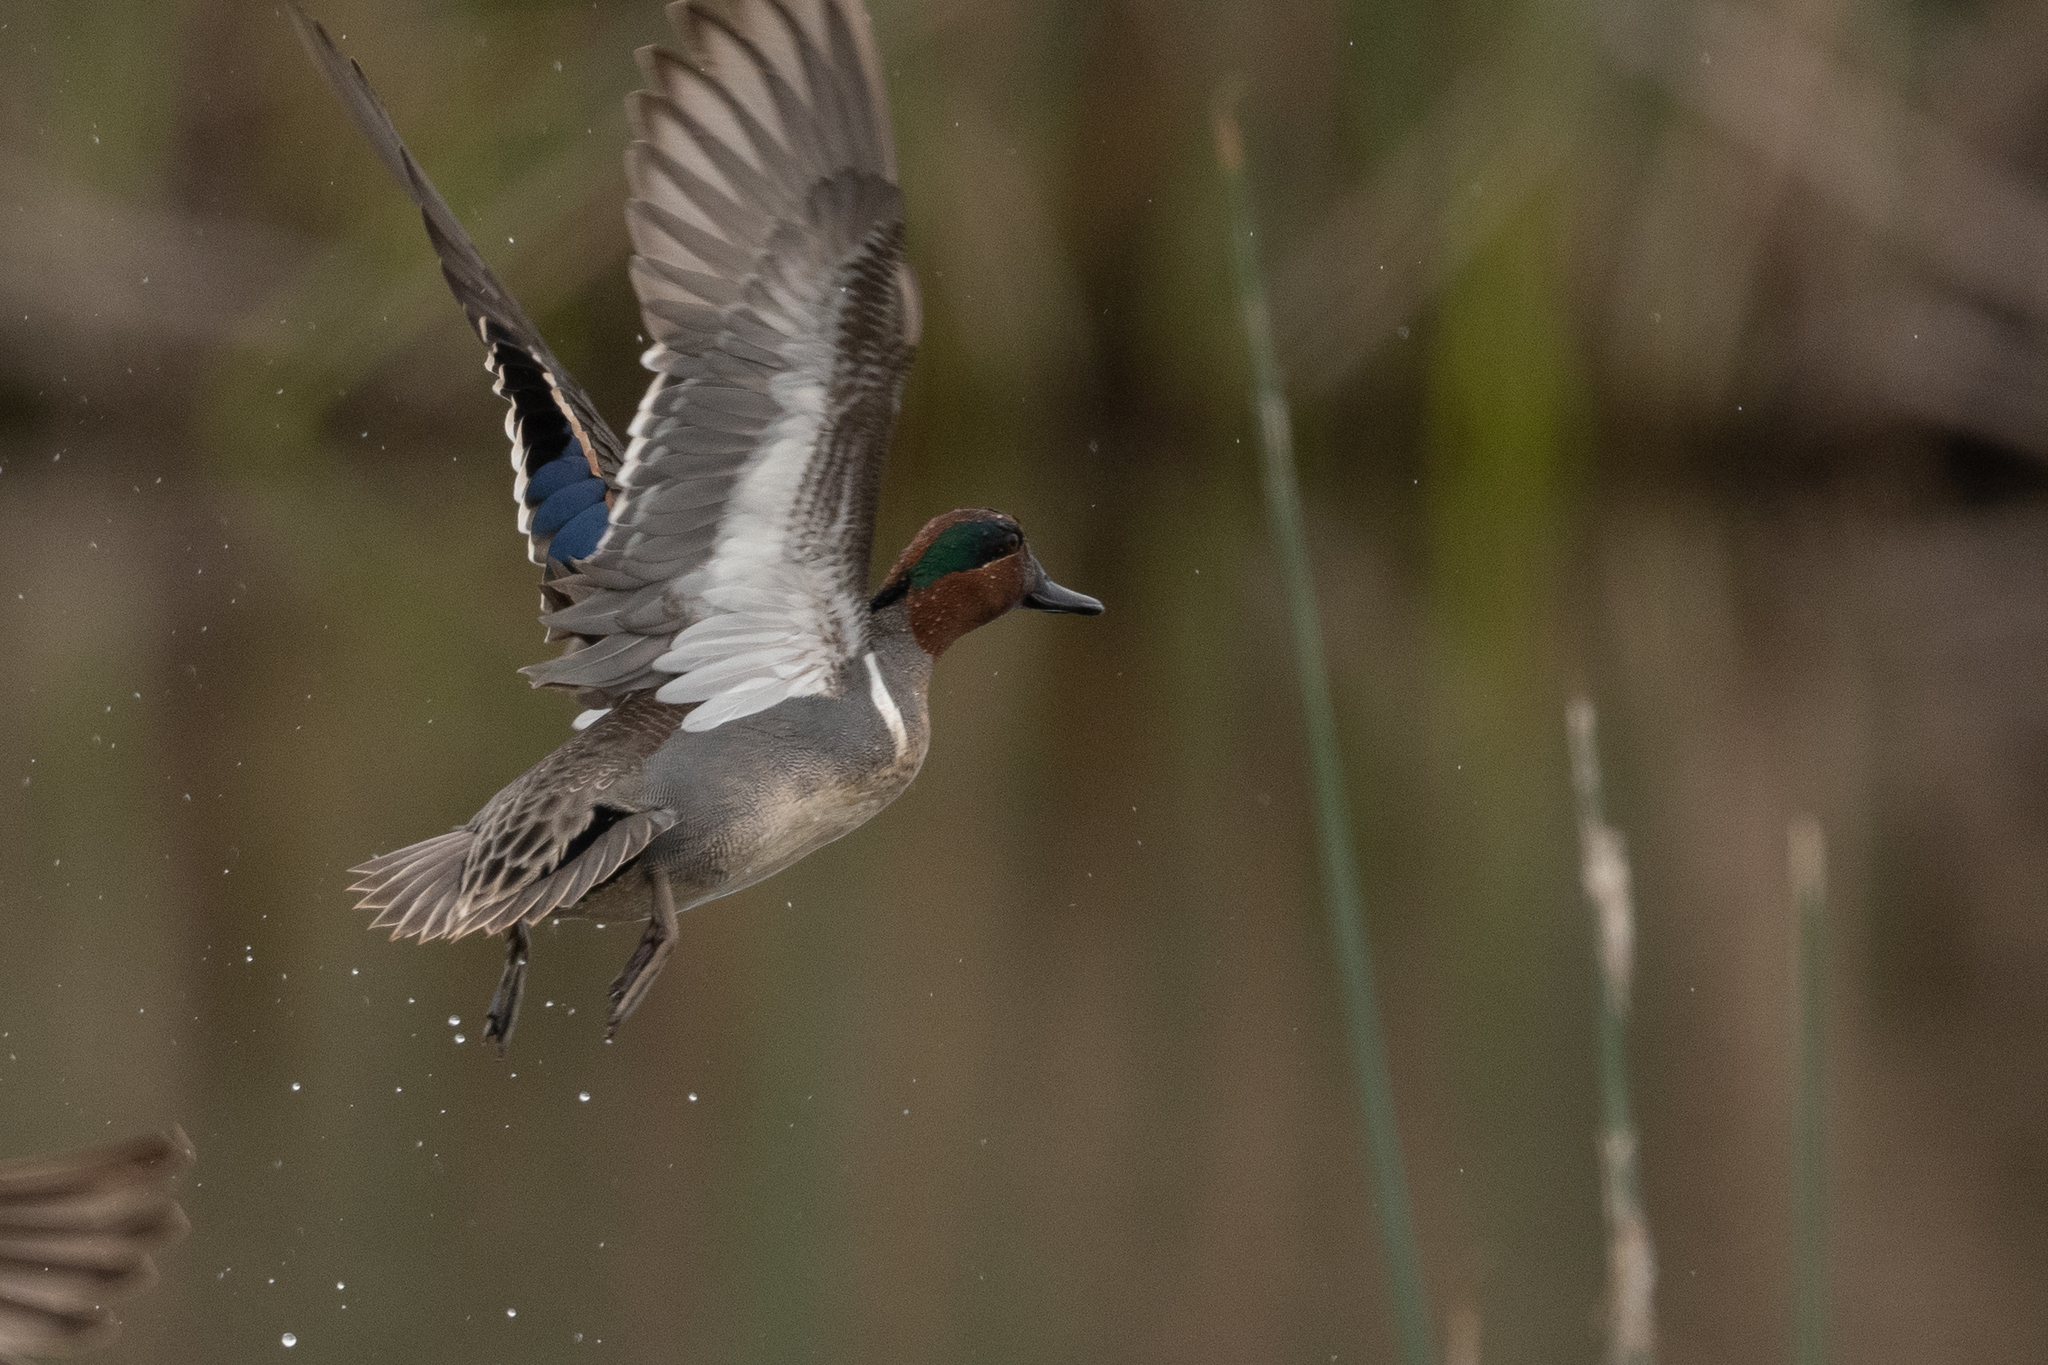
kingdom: Animalia
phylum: Chordata
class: Aves
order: Anseriformes
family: Anatidae
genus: Anas
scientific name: Anas crecca
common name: Eurasian teal
